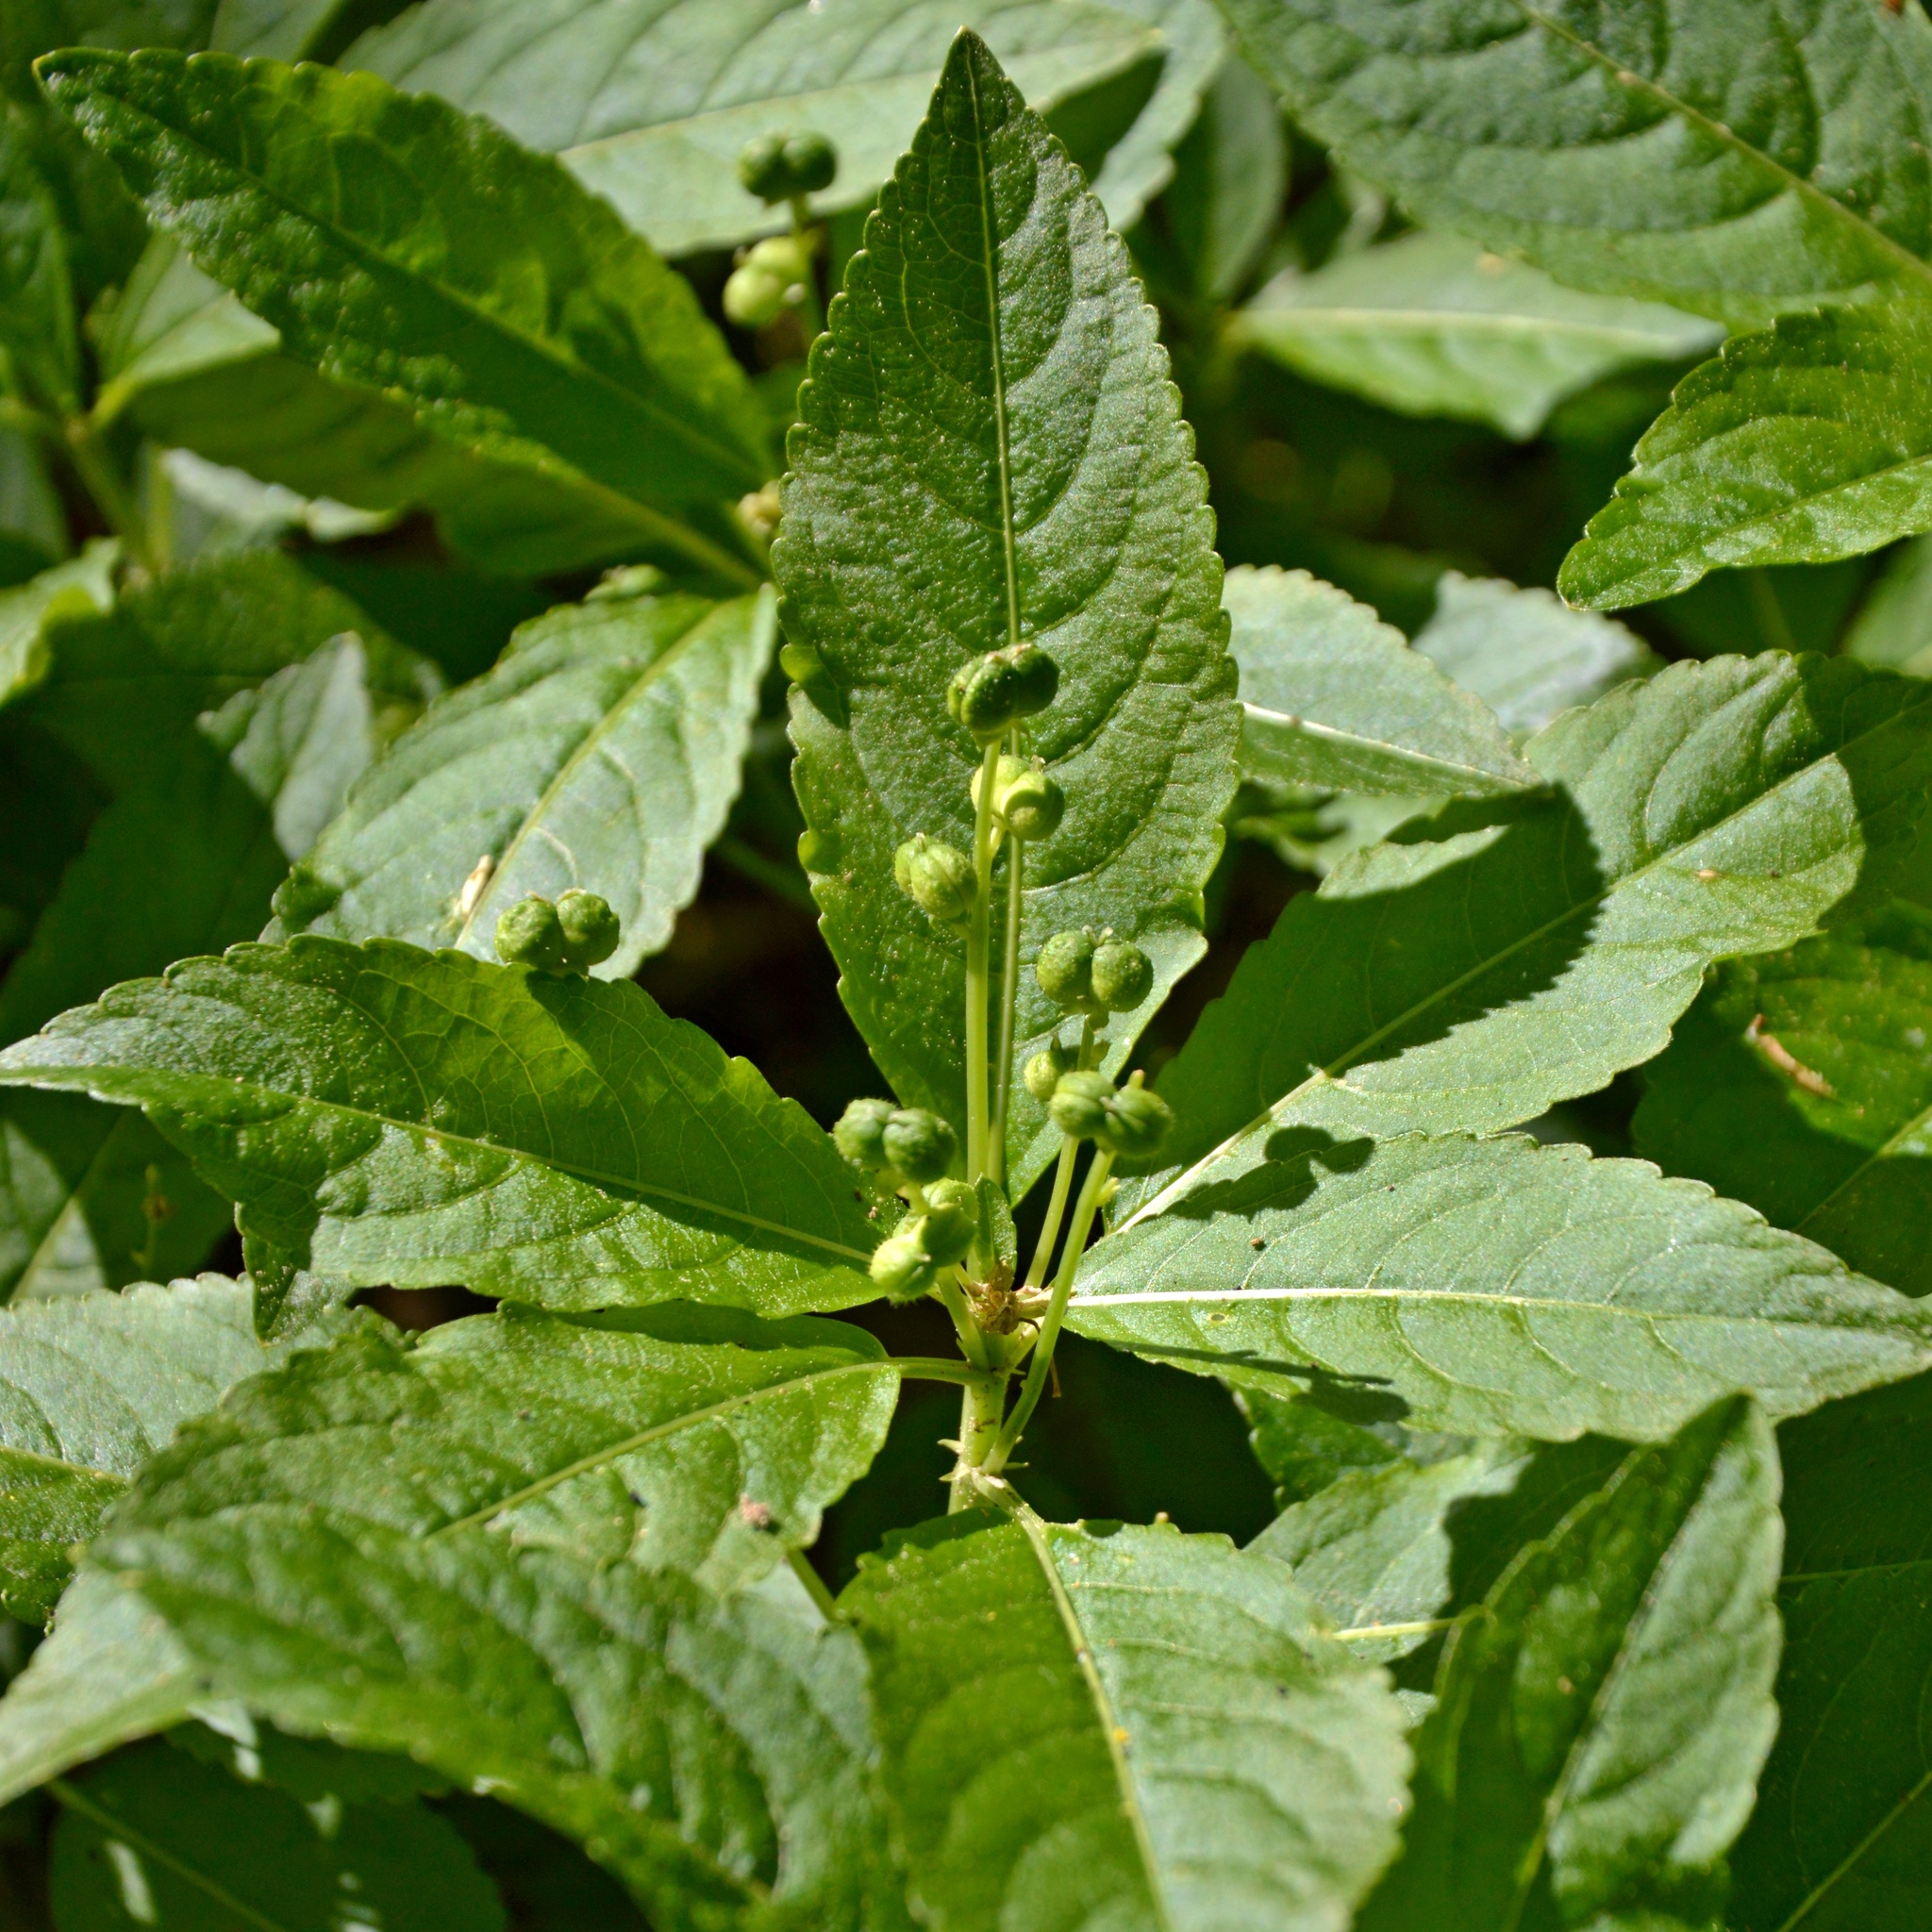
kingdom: Plantae
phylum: Tracheophyta
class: Magnoliopsida
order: Malpighiales
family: Euphorbiaceae
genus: Mercurialis
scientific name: Mercurialis perennis
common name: Dog mercury
